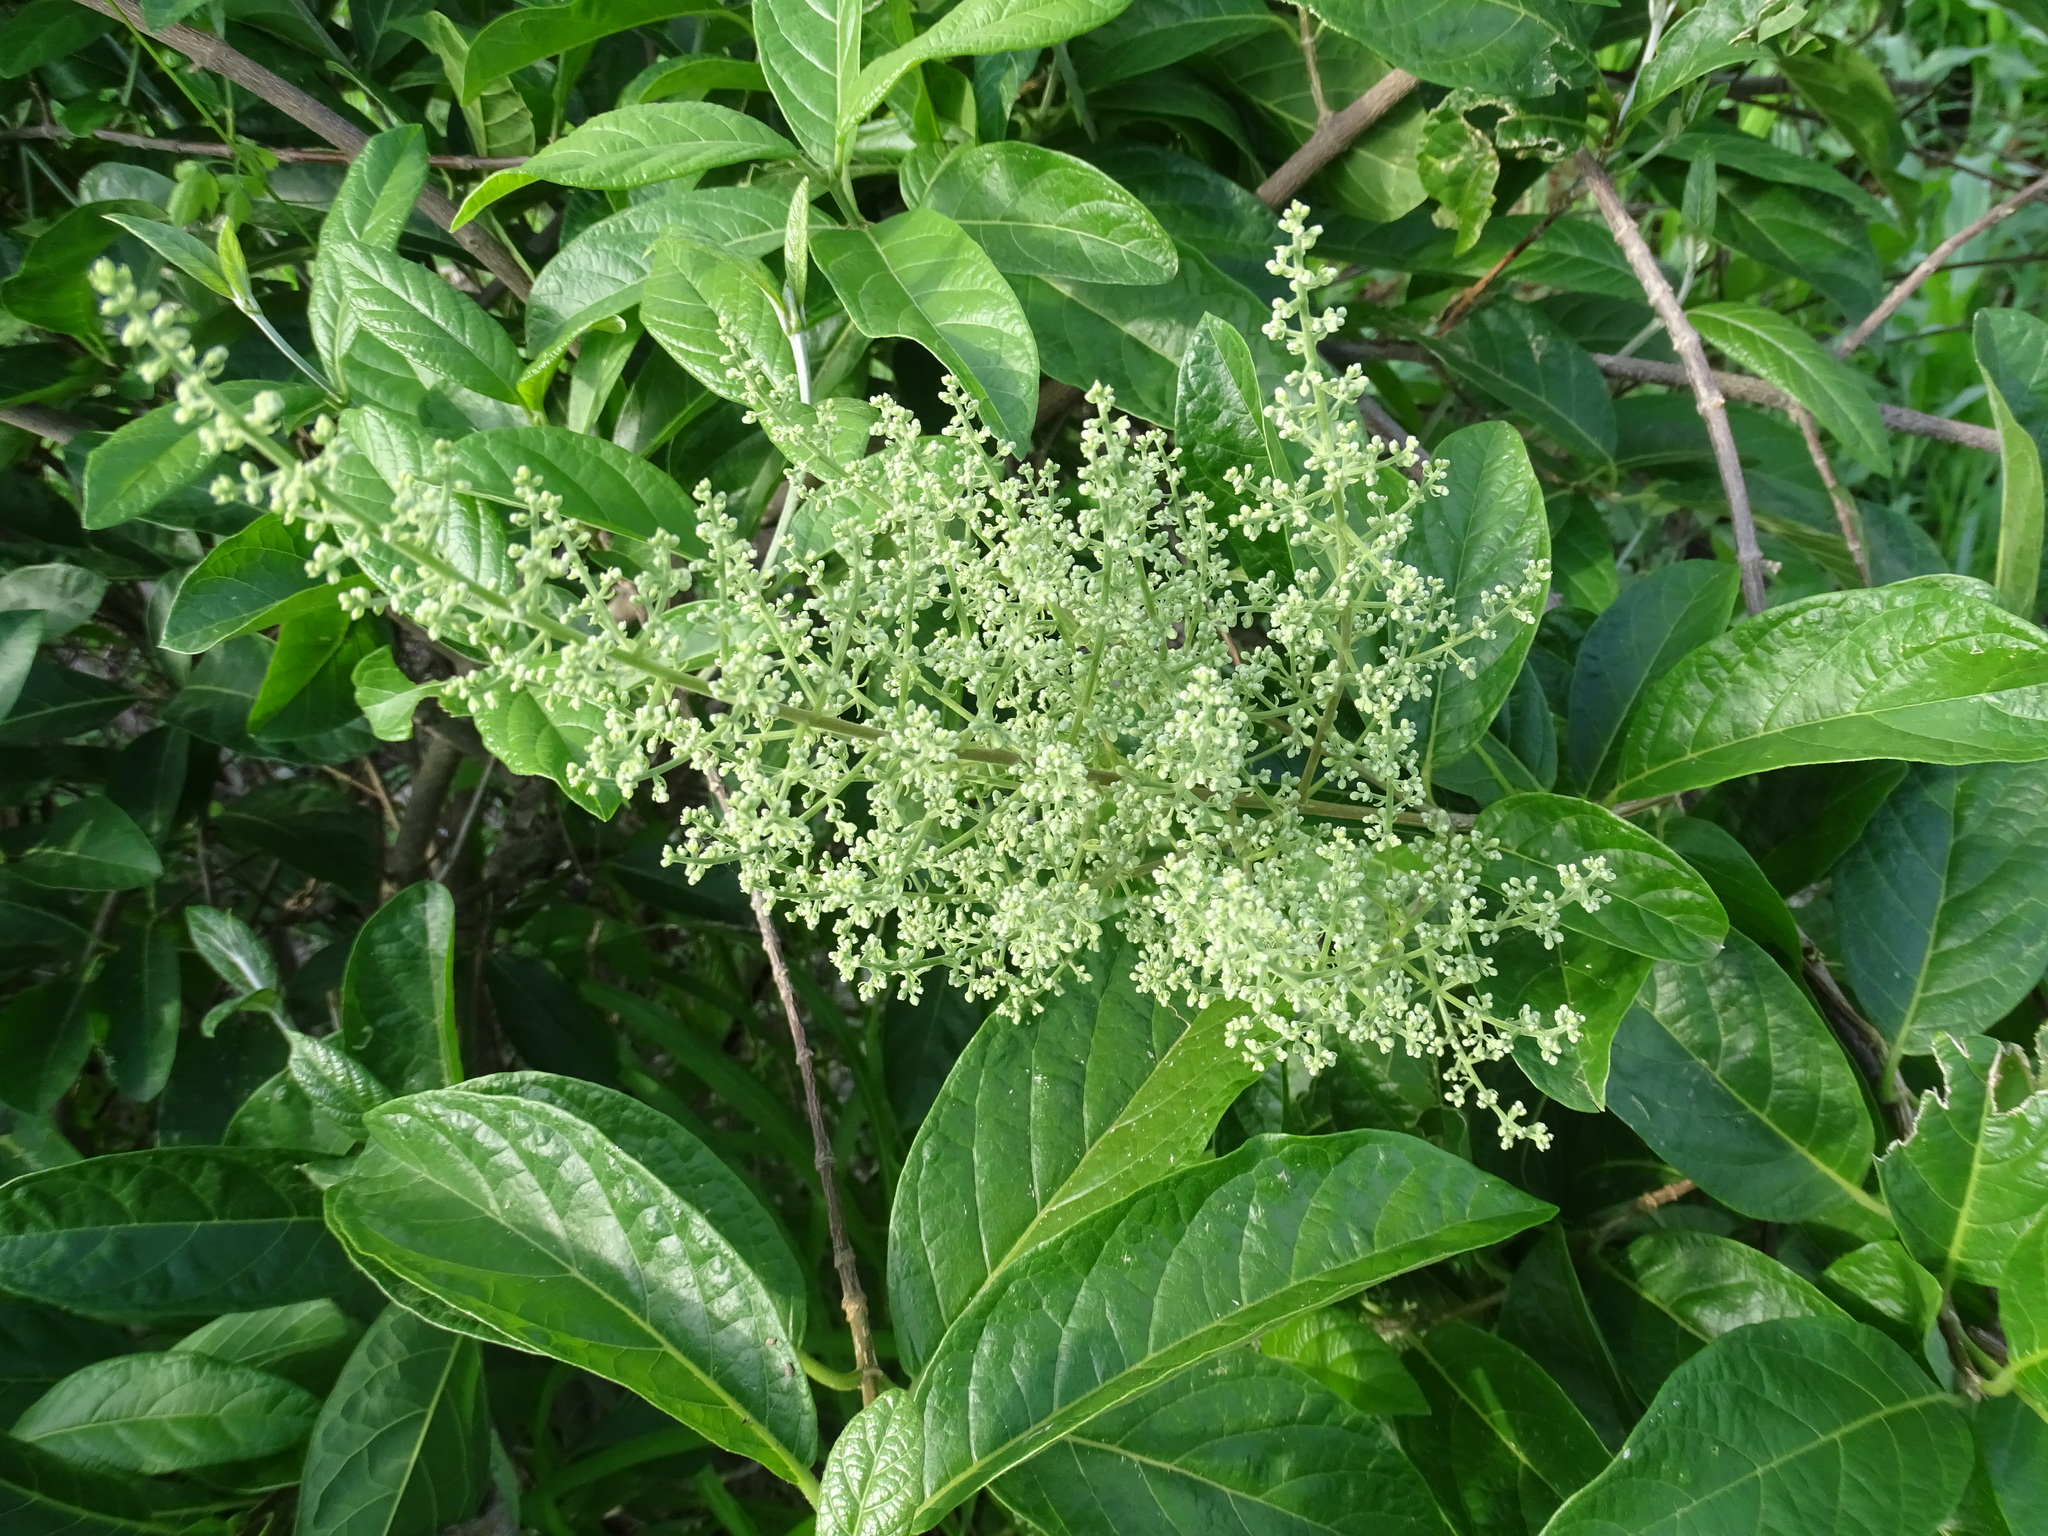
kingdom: Plantae
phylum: Tracheophyta
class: Magnoliopsida
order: Caryophyllales
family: Amaranthaceae
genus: Celosia
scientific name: Celosia monosperma
